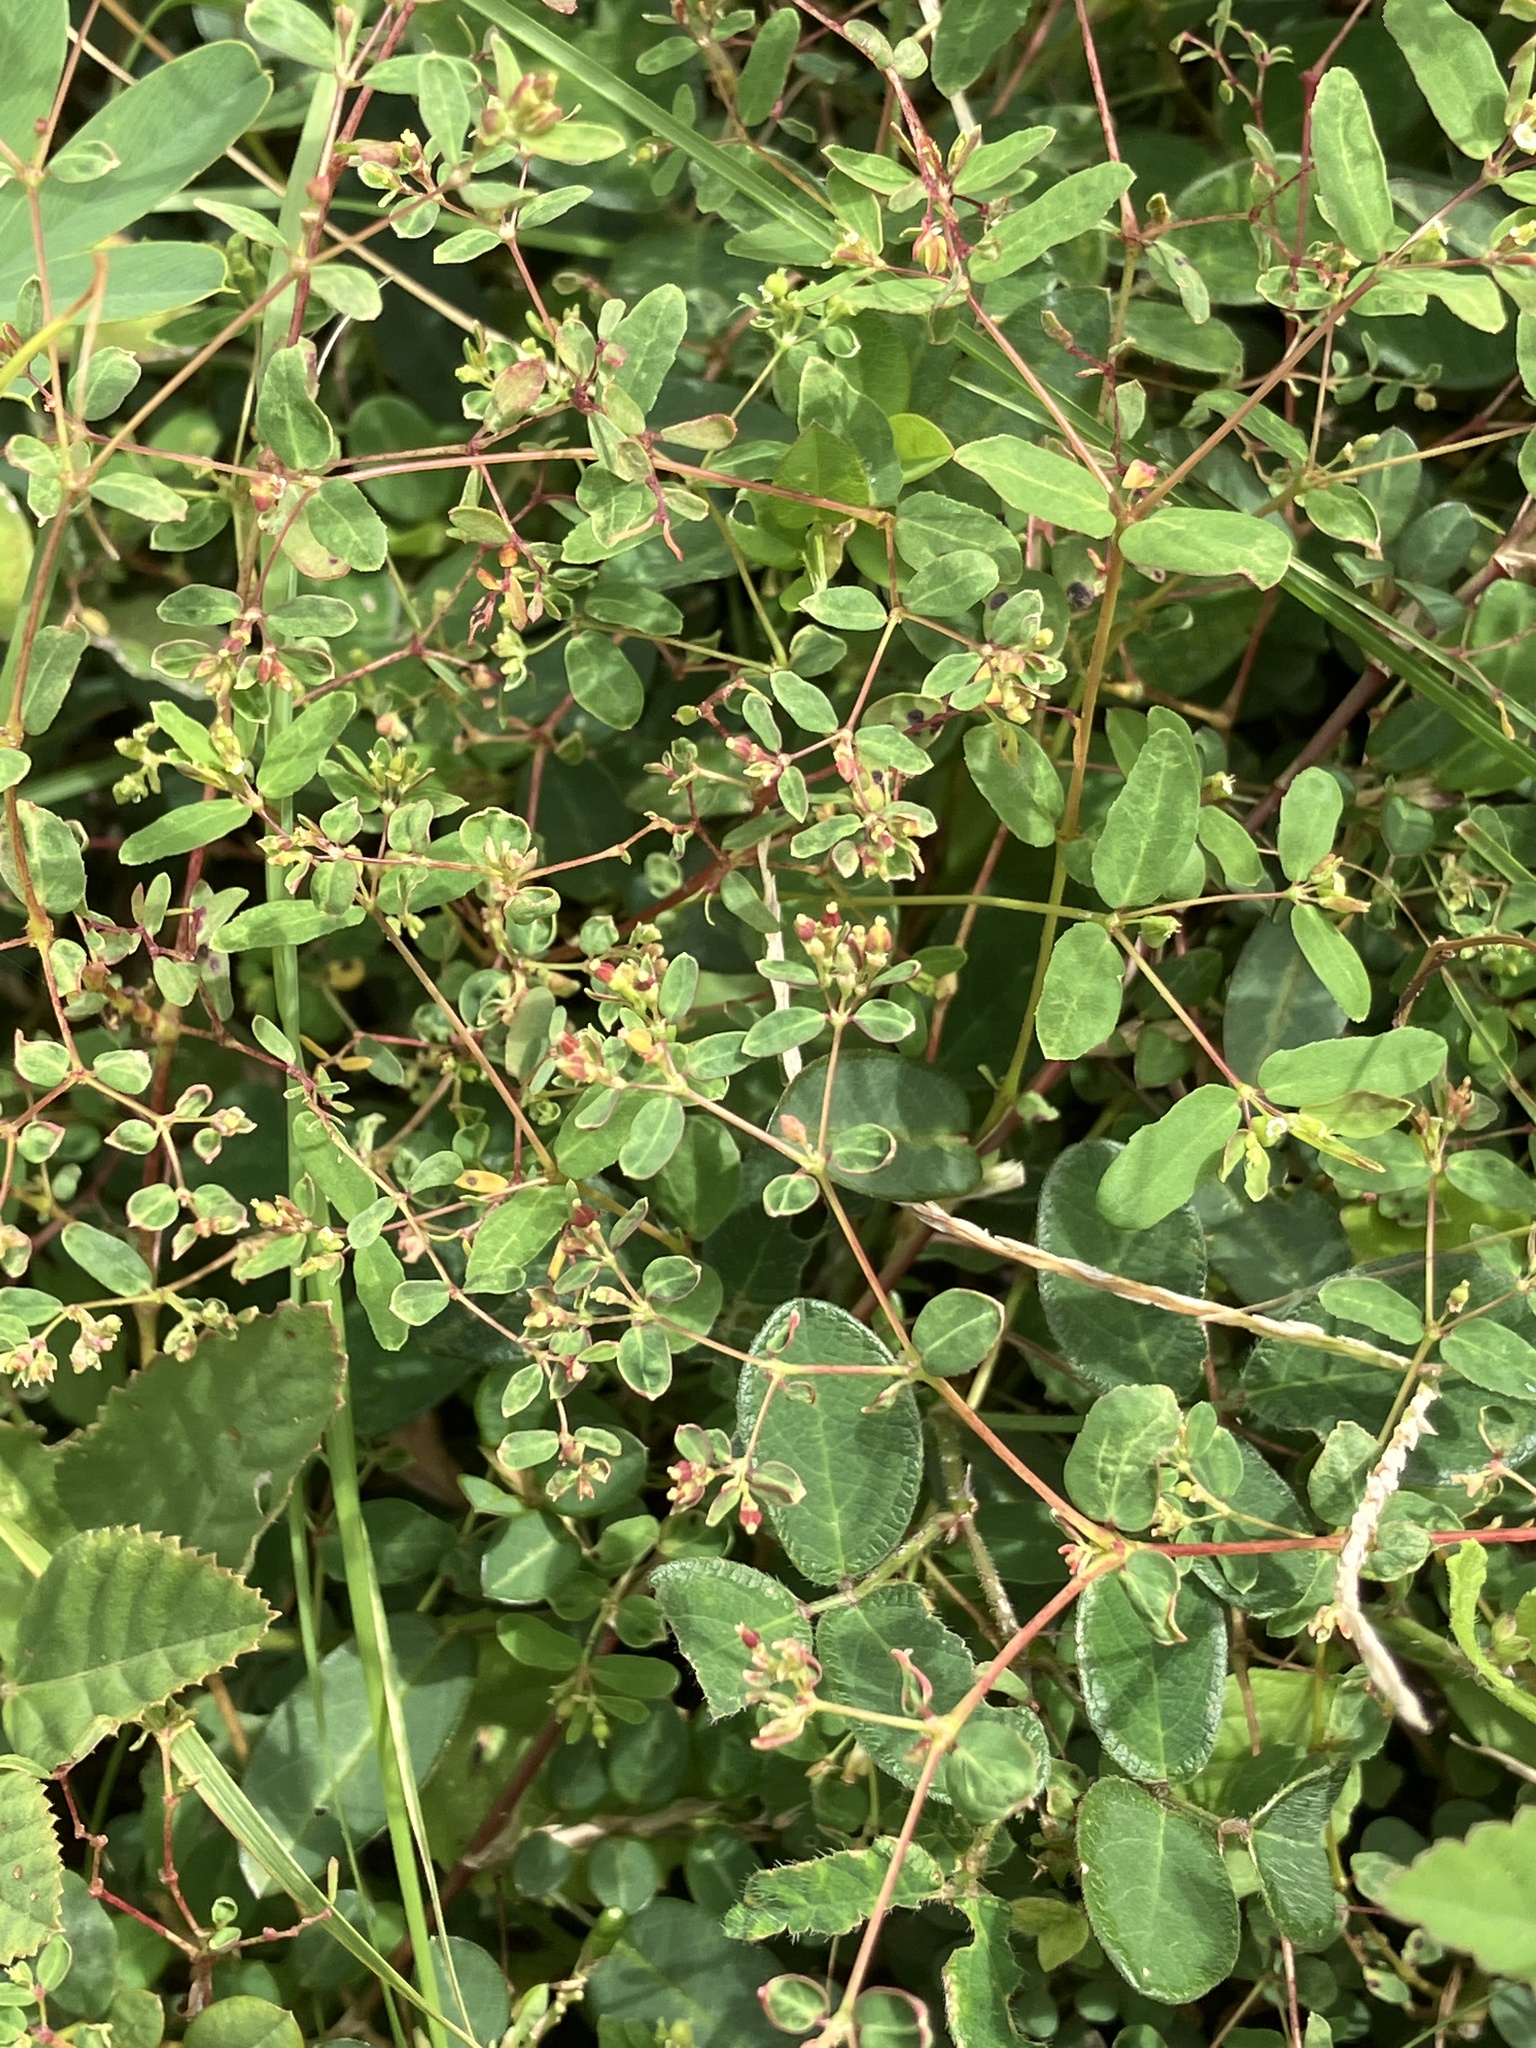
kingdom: Plantae
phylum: Tracheophyta
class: Magnoliopsida
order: Malpighiales
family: Euphorbiaceae
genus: Euphorbia
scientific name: Euphorbia hyssopifolia
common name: Hyssopleaf sandmat
